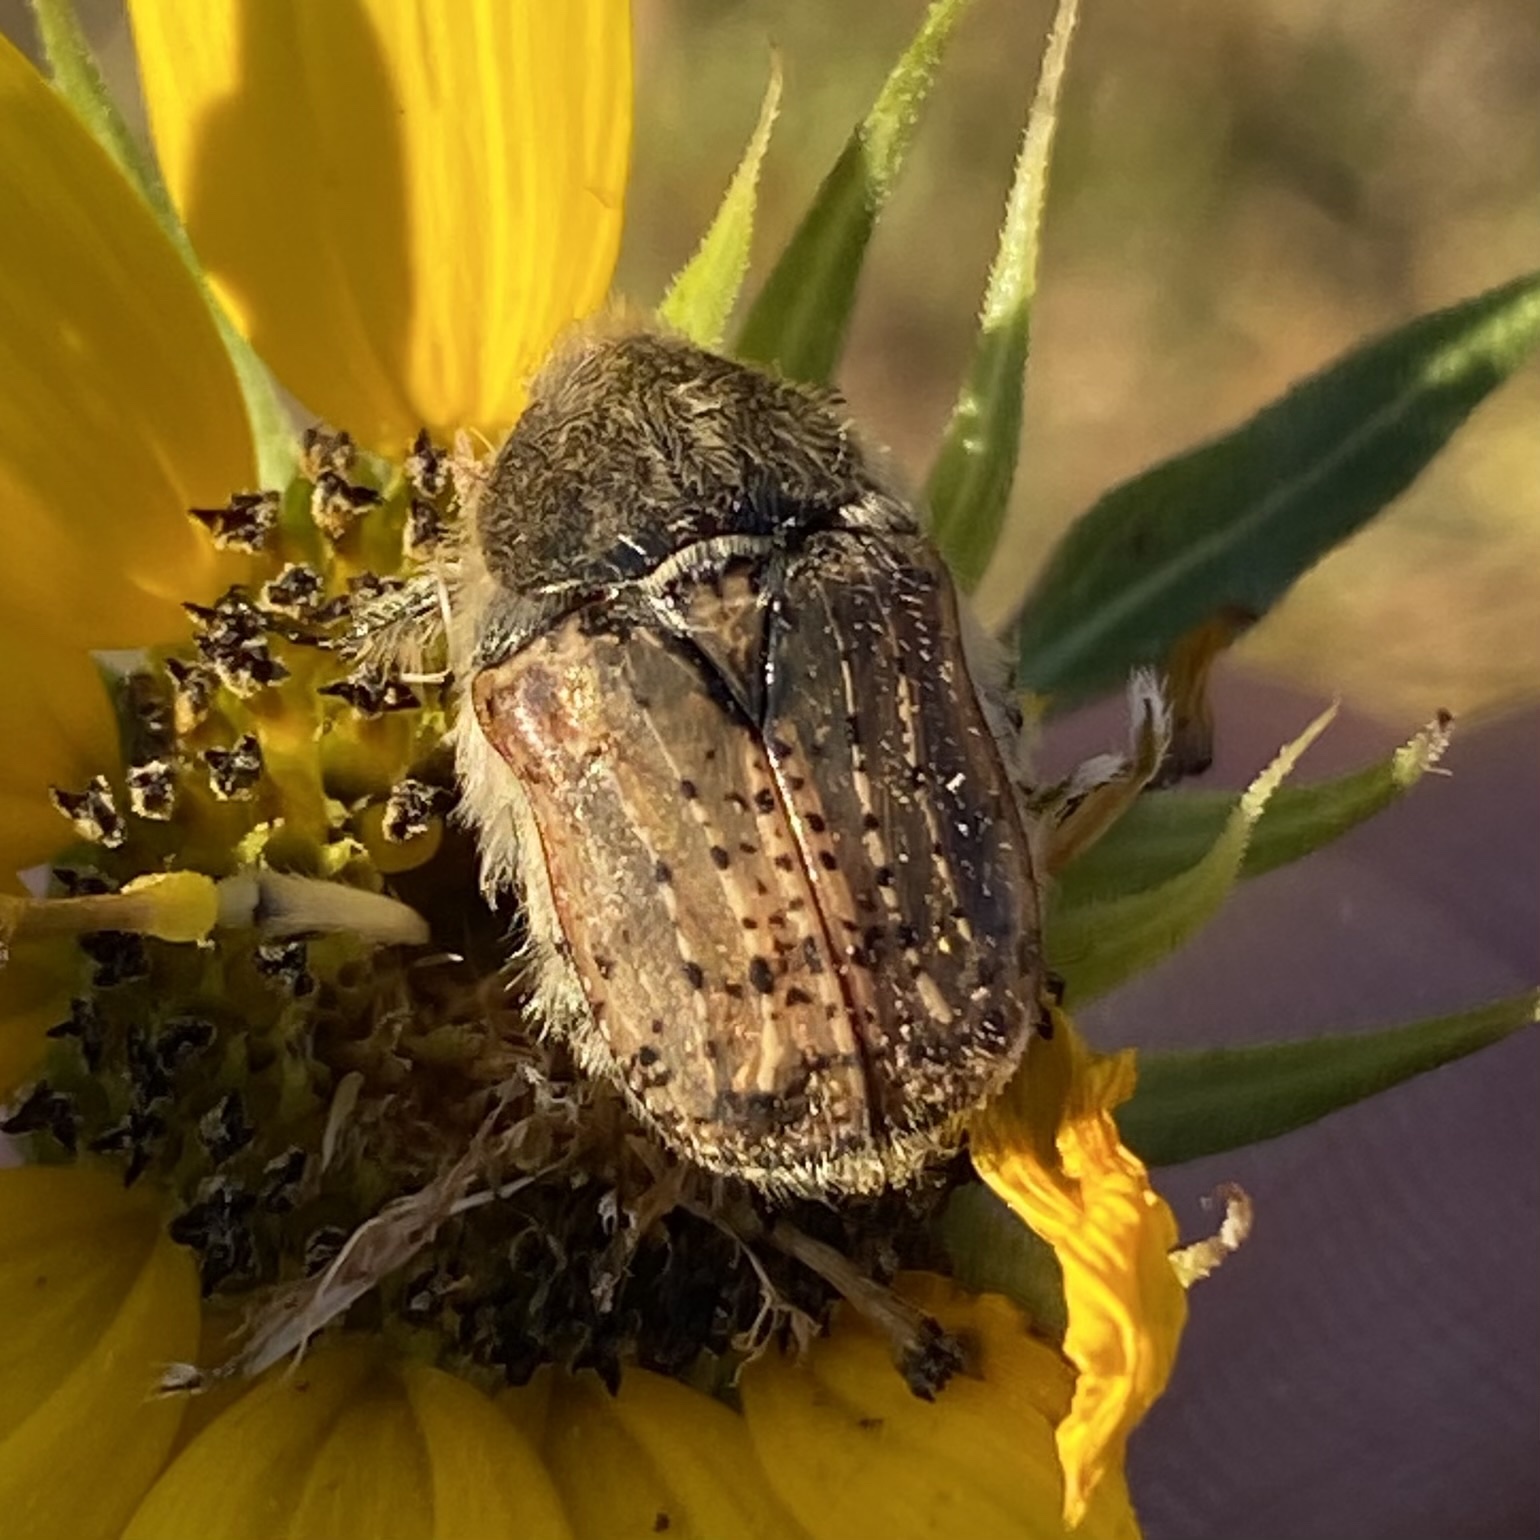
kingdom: Animalia
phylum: Arthropoda
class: Insecta
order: Coleoptera
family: Scarabaeidae
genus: Euphoria
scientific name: Euphoria inda
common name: Bumble flower beetle
